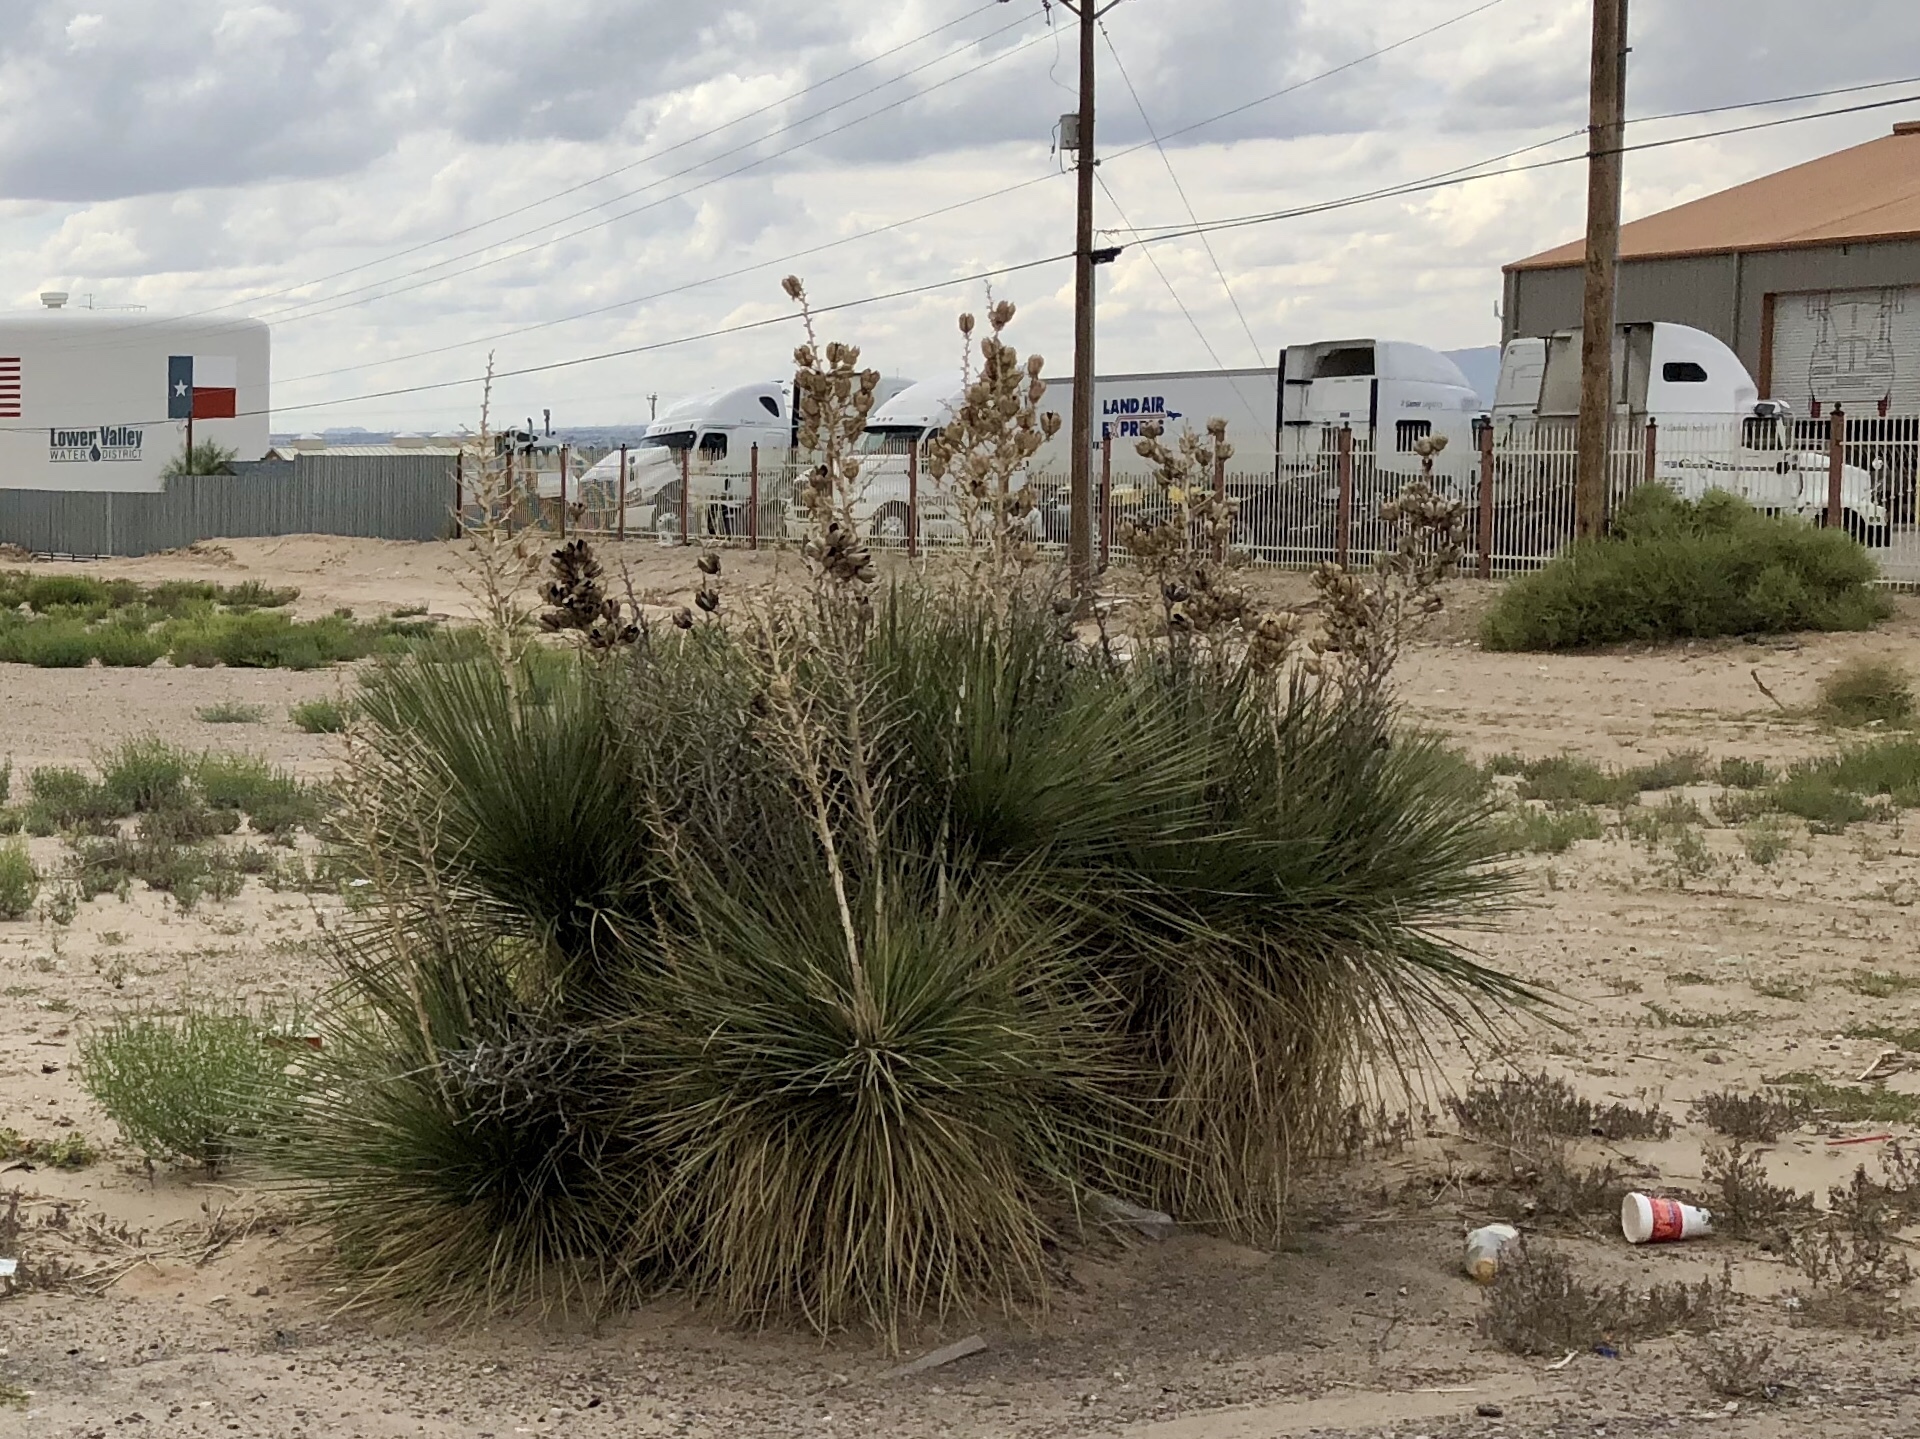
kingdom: Plantae
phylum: Tracheophyta
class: Liliopsida
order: Asparagales
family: Asparagaceae
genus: Yucca
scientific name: Yucca elata
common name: Palmella
